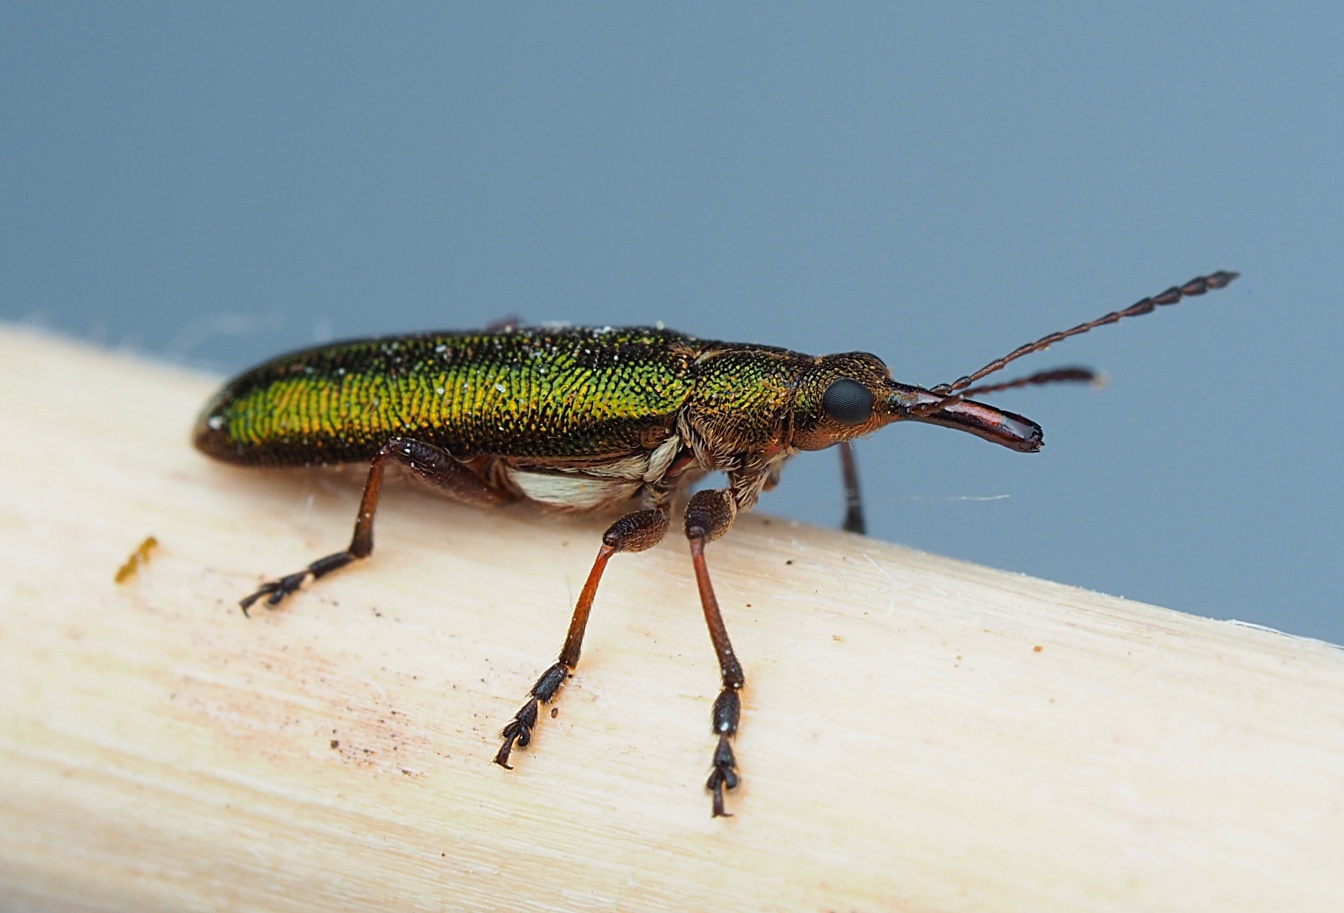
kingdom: Animalia
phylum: Arthropoda
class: Insecta
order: Coleoptera
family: Belidae
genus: Rhicnobelus
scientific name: Rhicnobelus
